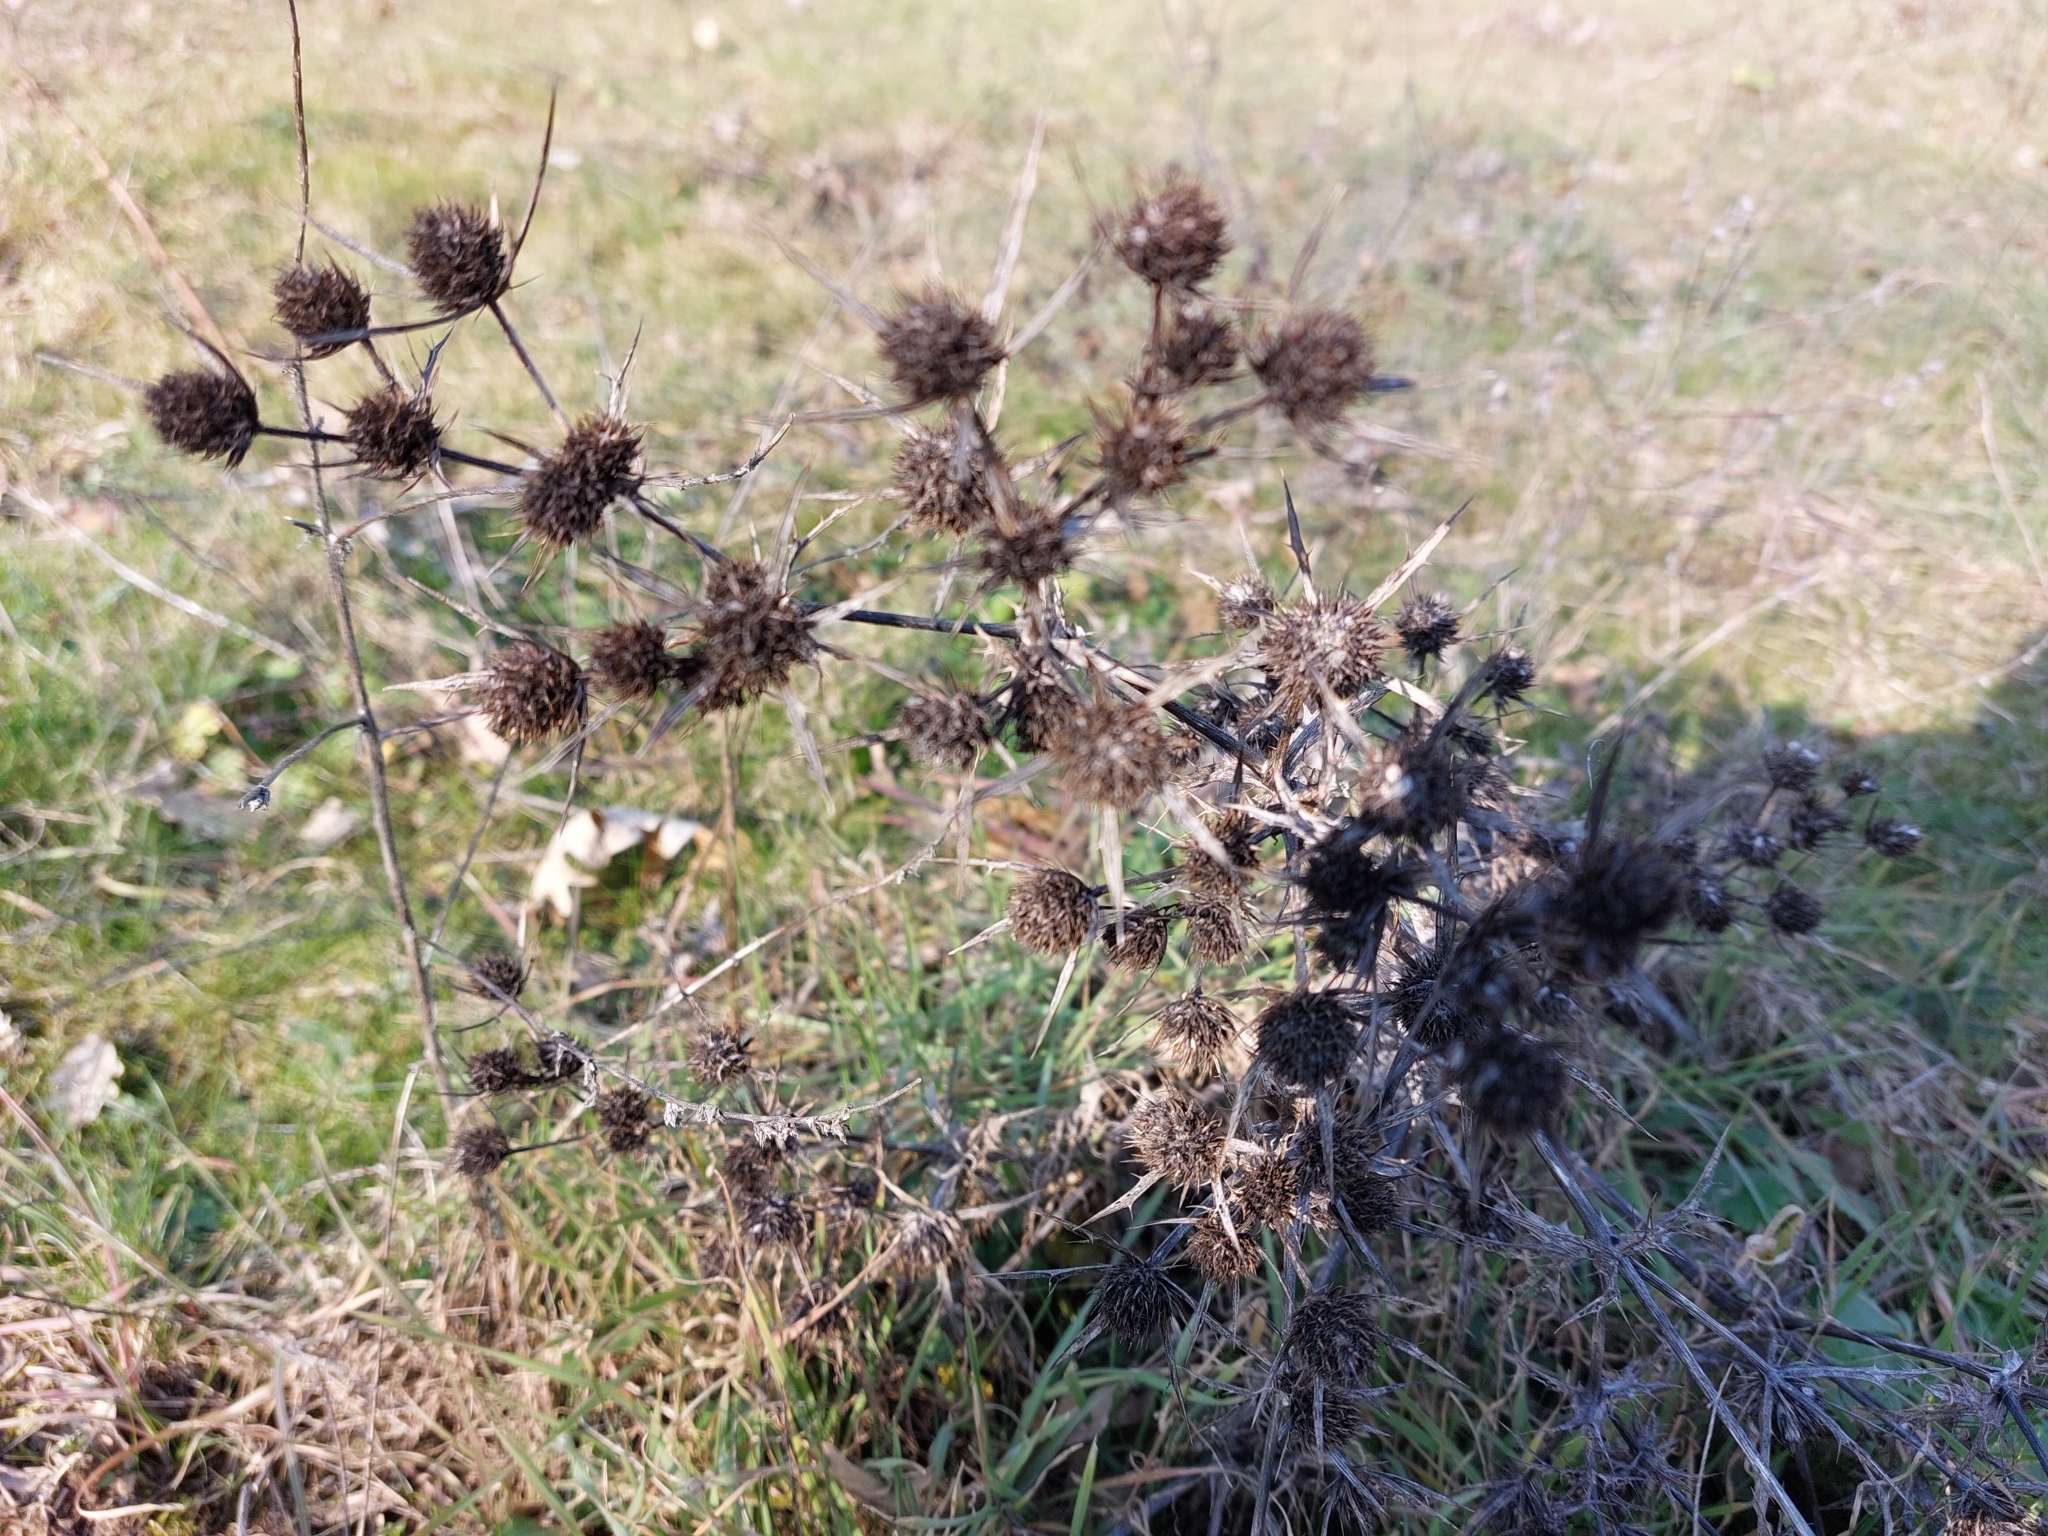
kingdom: Plantae
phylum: Tracheophyta
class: Magnoliopsida
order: Apiales
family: Apiaceae
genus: Eryngium
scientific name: Eryngium campestre
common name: Field eryngo
